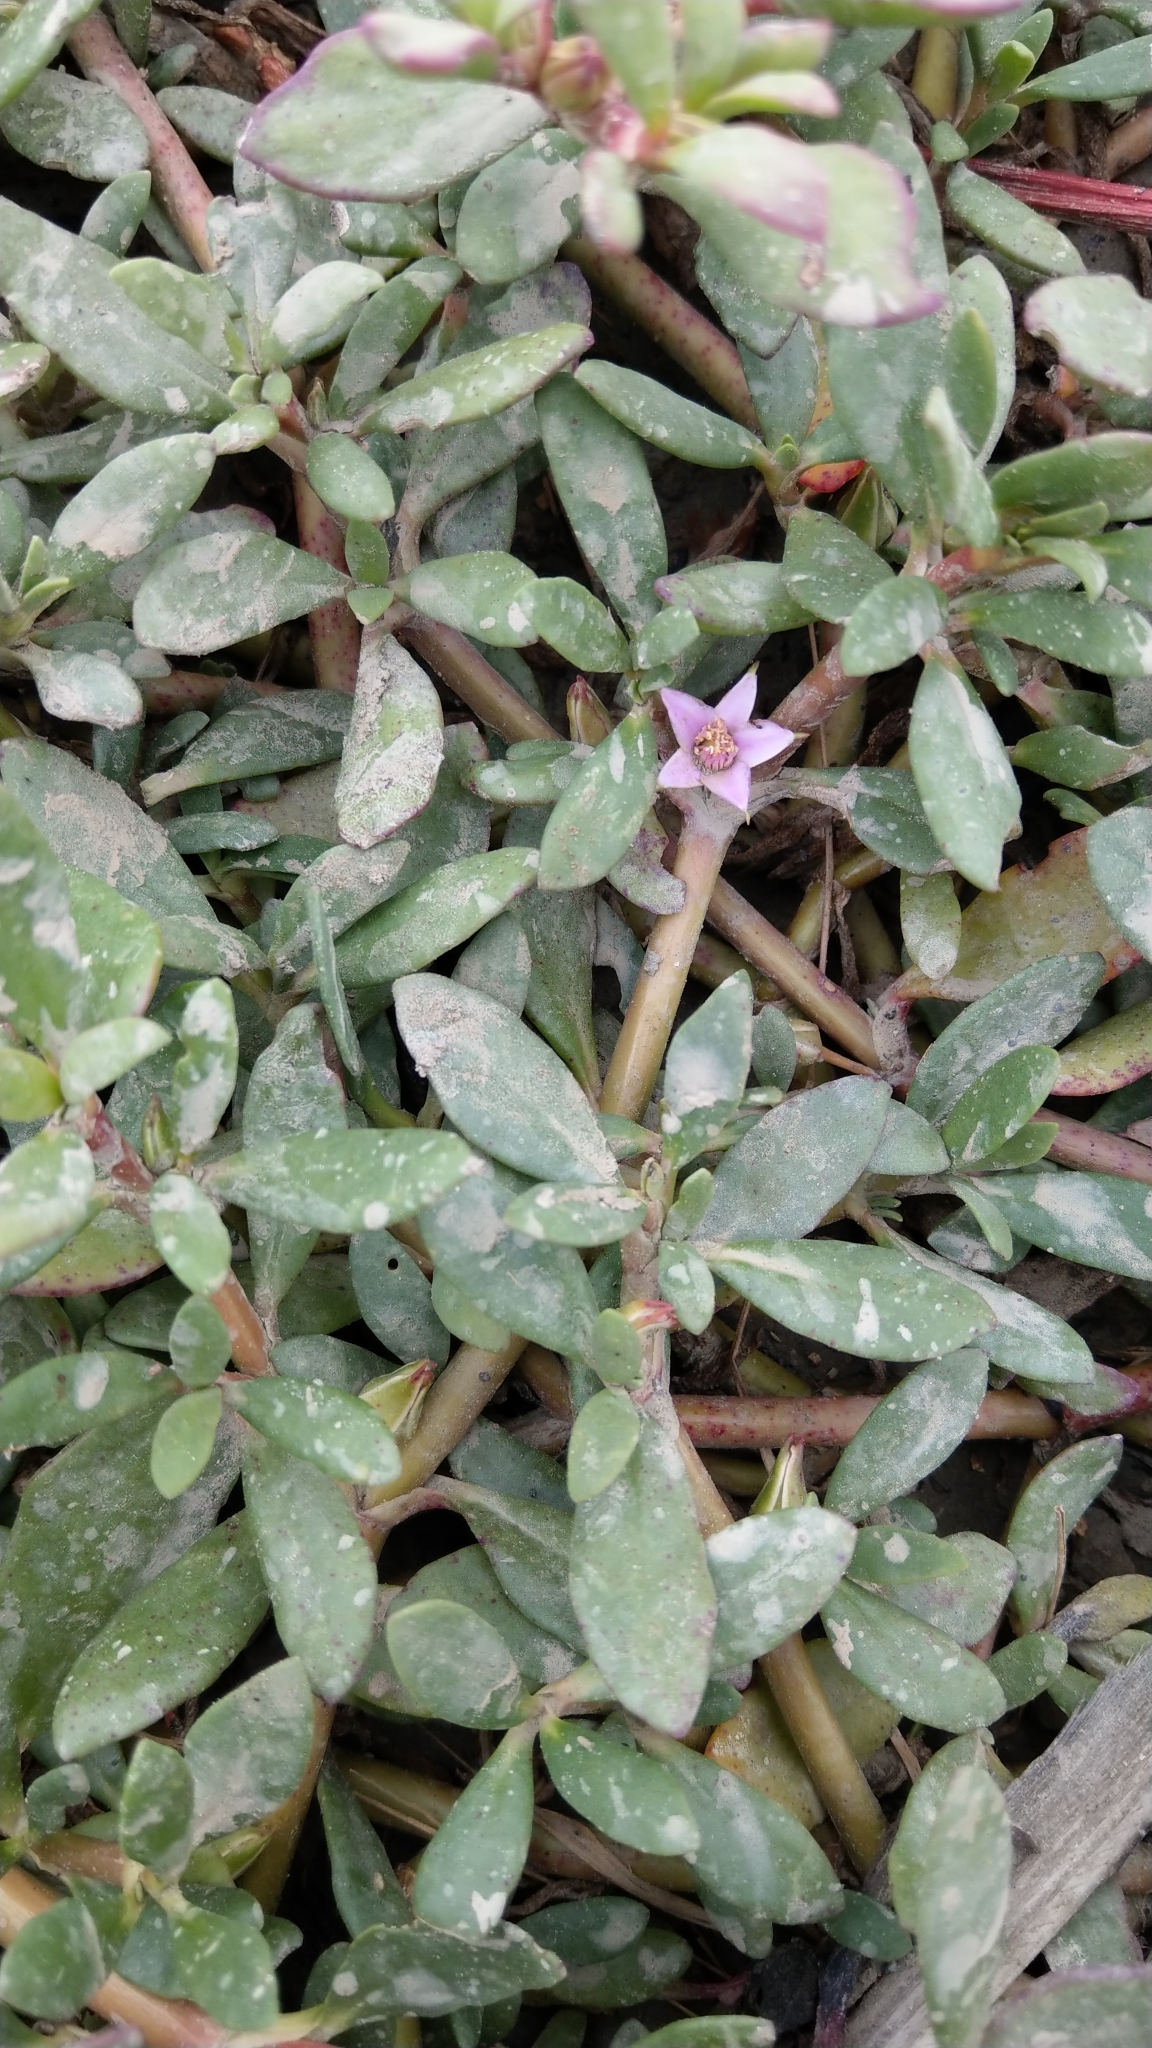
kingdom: Plantae
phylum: Tracheophyta
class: Magnoliopsida
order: Caryophyllales
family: Aizoaceae
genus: Sesuvium
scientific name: Sesuvium portulacastrum
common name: Sea-purslane
